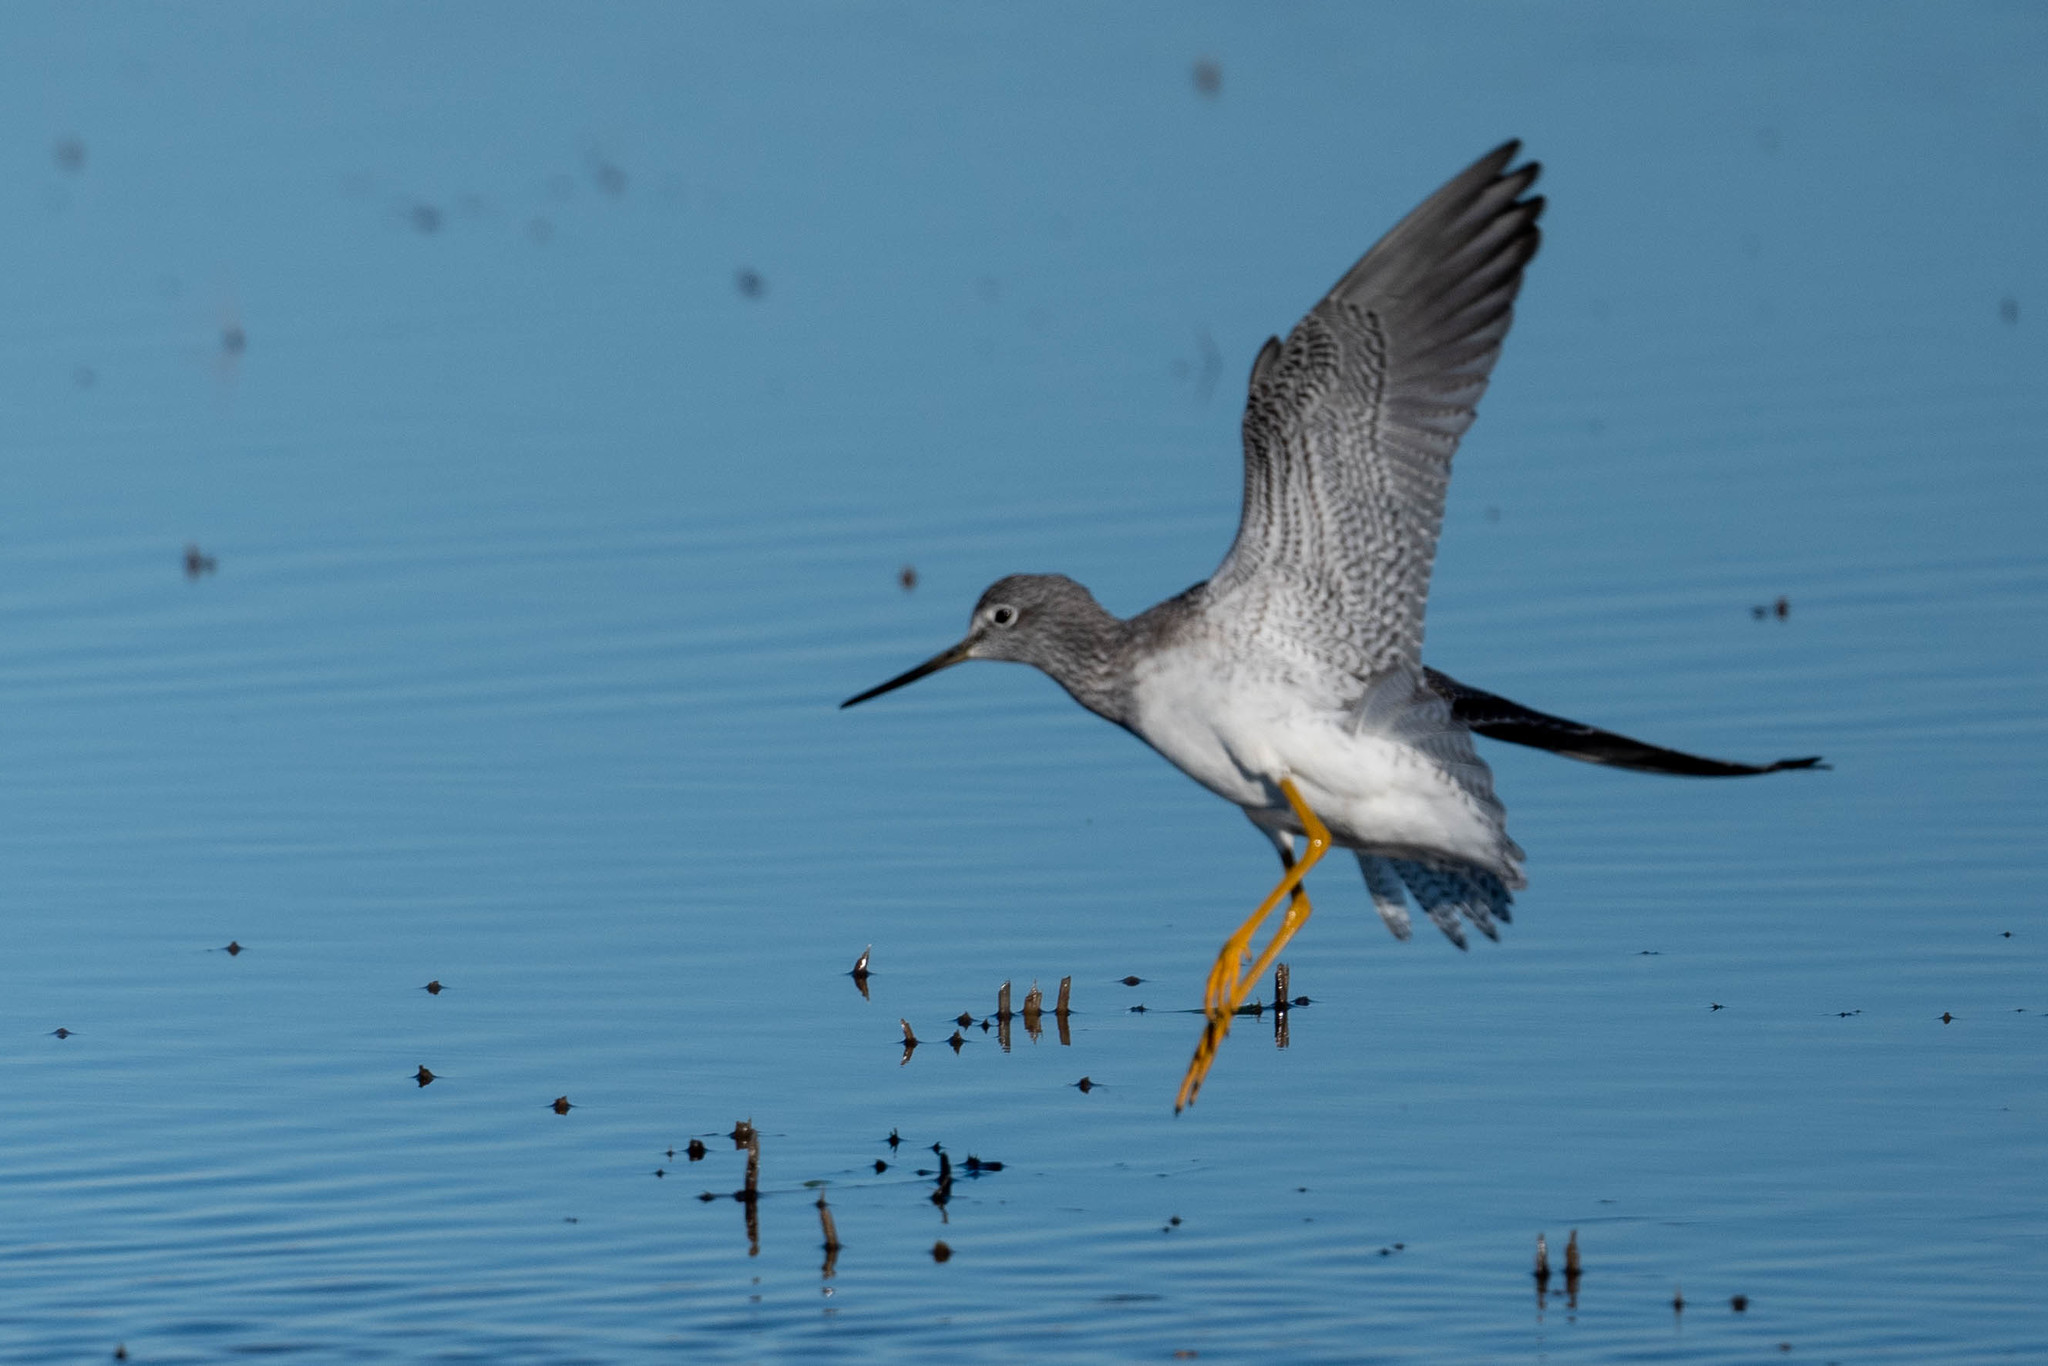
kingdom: Animalia
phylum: Chordata
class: Aves
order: Charadriiformes
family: Scolopacidae
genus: Tringa
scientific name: Tringa melanoleuca
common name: Greater yellowlegs
